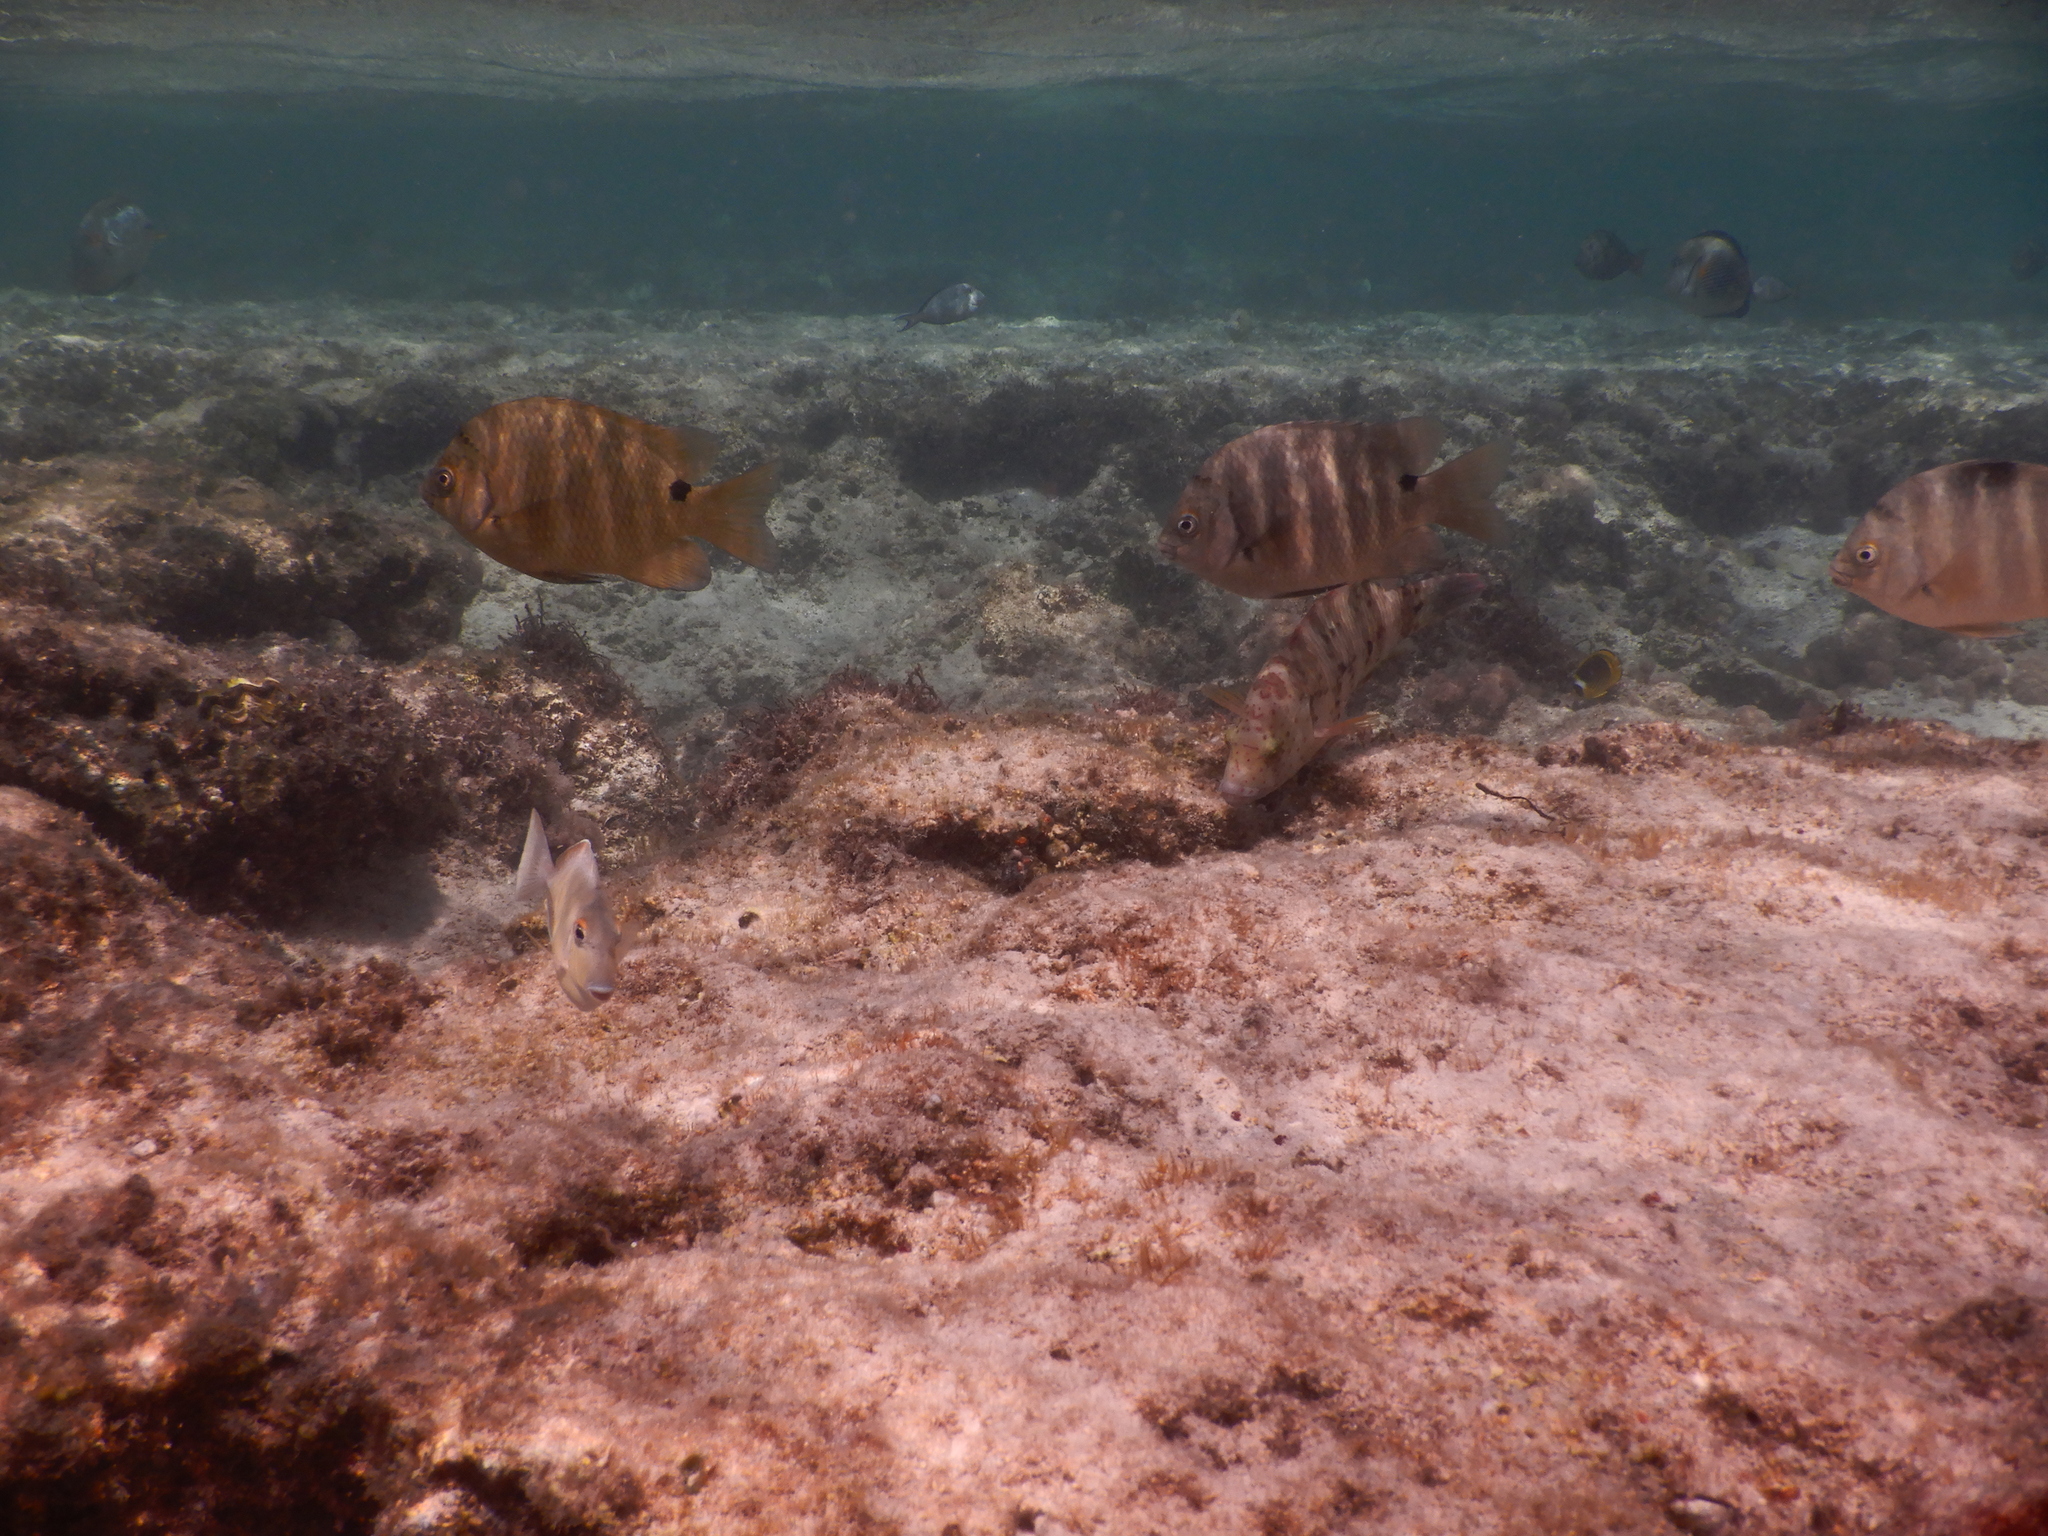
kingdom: Animalia
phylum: Chordata
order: Perciformes
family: Pomacentridae
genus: Abudefduf
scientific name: Abudefduf sordidus
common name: Blackspot sergeant
